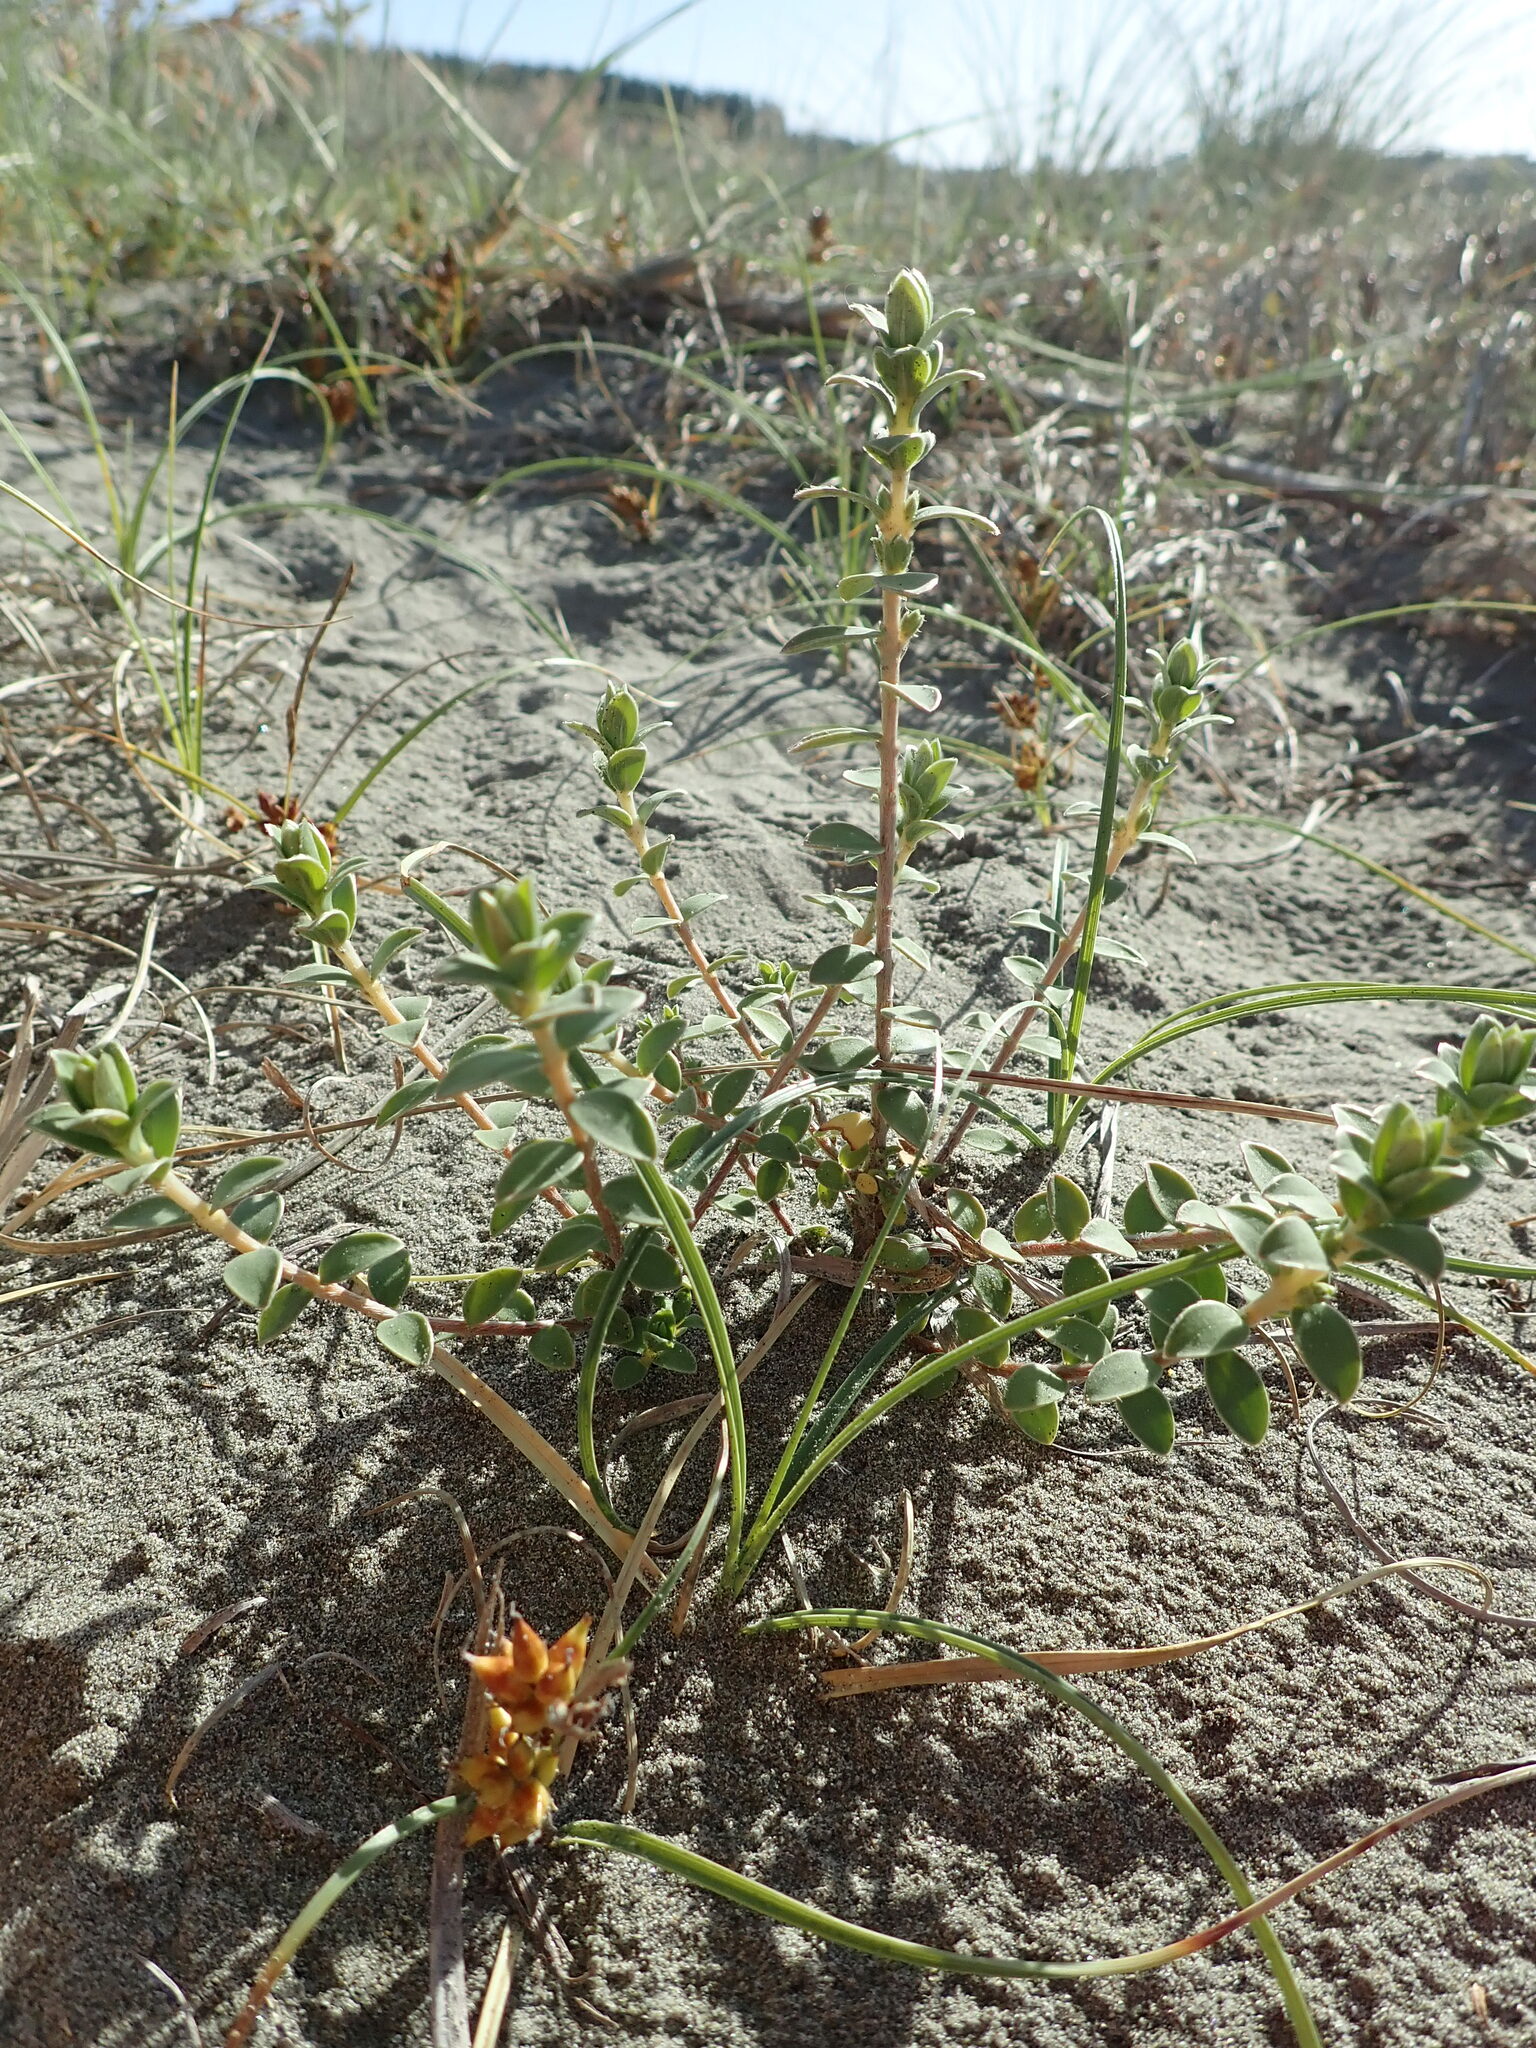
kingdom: Plantae
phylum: Tracheophyta
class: Magnoliopsida
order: Malvales
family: Thymelaeaceae
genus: Pimelea
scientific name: Pimelea villosa
